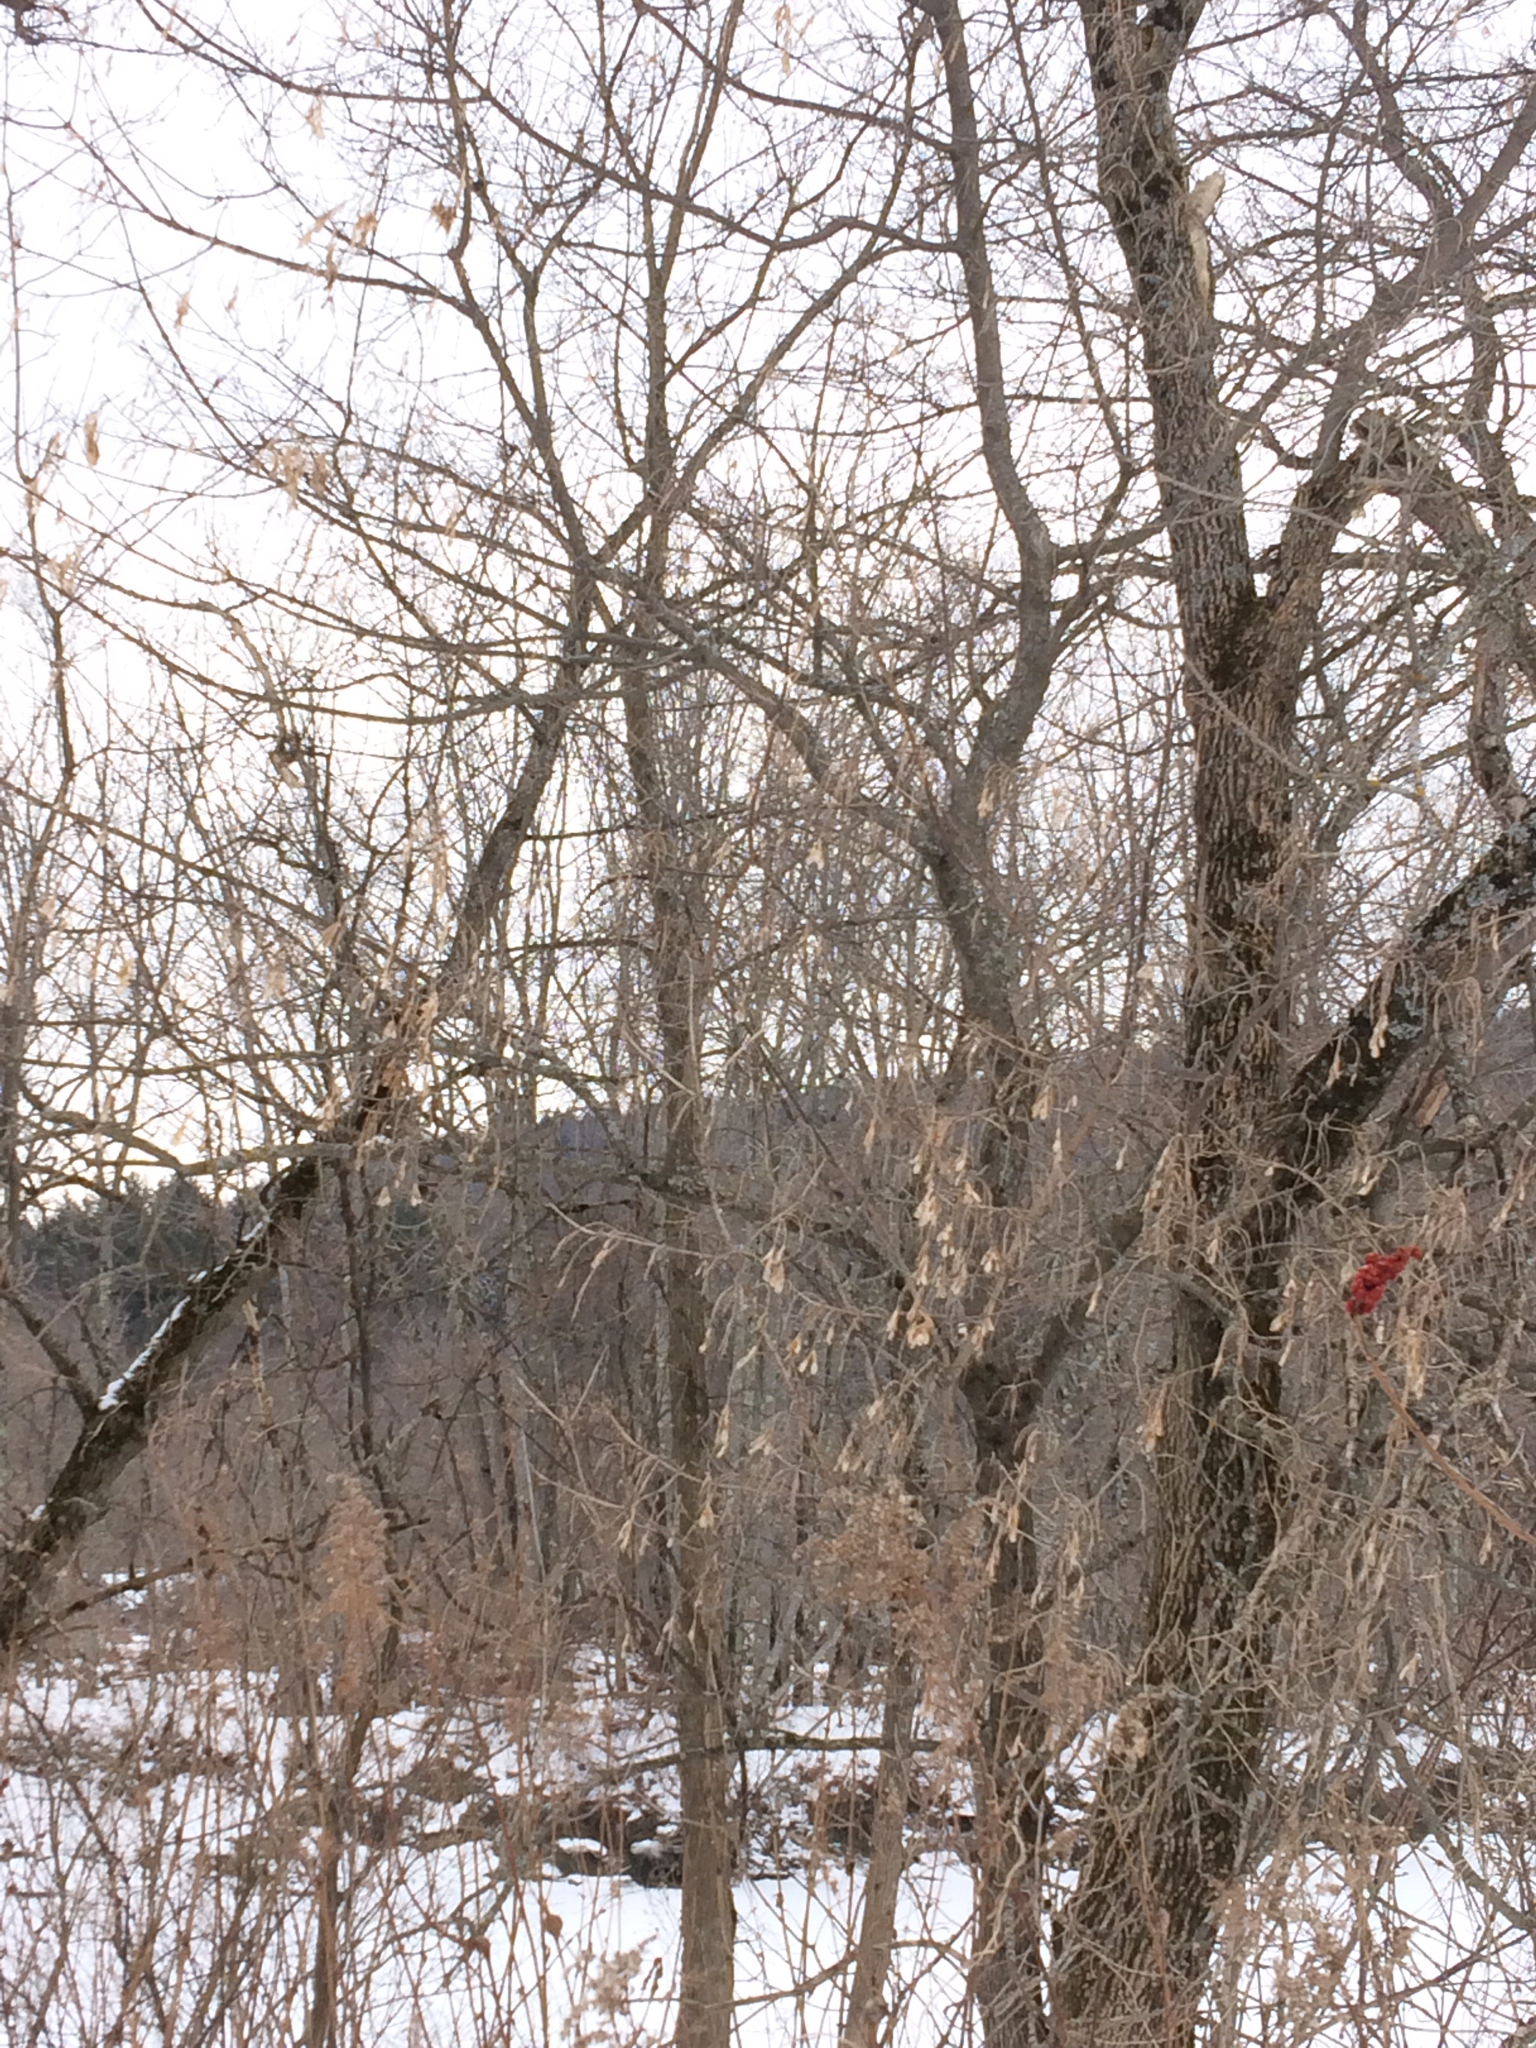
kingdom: Plantae
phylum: Tracheophyta
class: Magnoliopsida
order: Sapindales
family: Sapindaceae
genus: Acer
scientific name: Acer negundo
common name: Ashleaf maple
